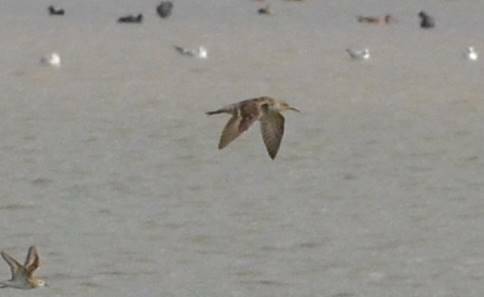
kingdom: Animalia
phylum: Chordata
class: Aves
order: Charadriiformes
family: Scolopacidae
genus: Calidris
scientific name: Calidris pugnax
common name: Ruff
